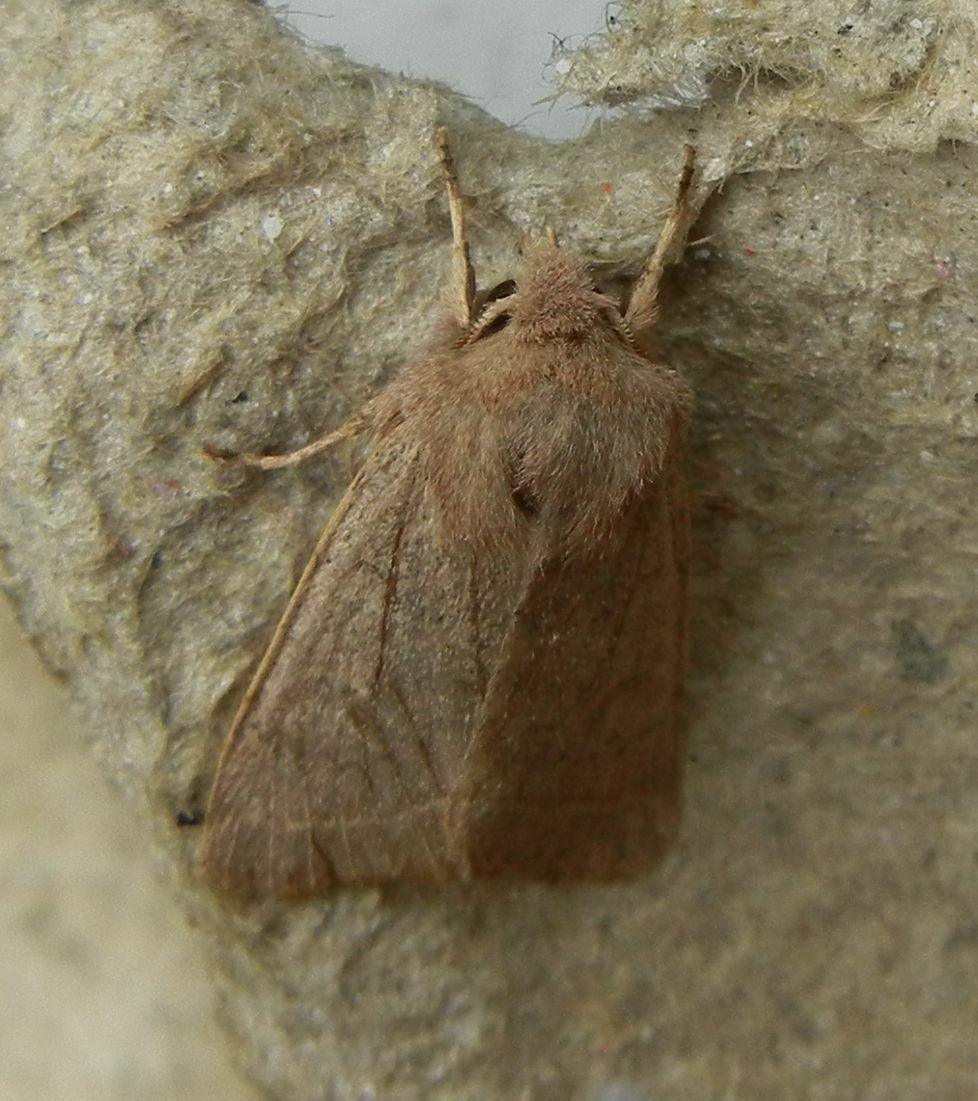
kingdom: Animalia
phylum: Arthropoda
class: Insecta
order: Lepidoptera
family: Noctuidae
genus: Orthosia
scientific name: Orthosia cerasi
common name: Common quaker
